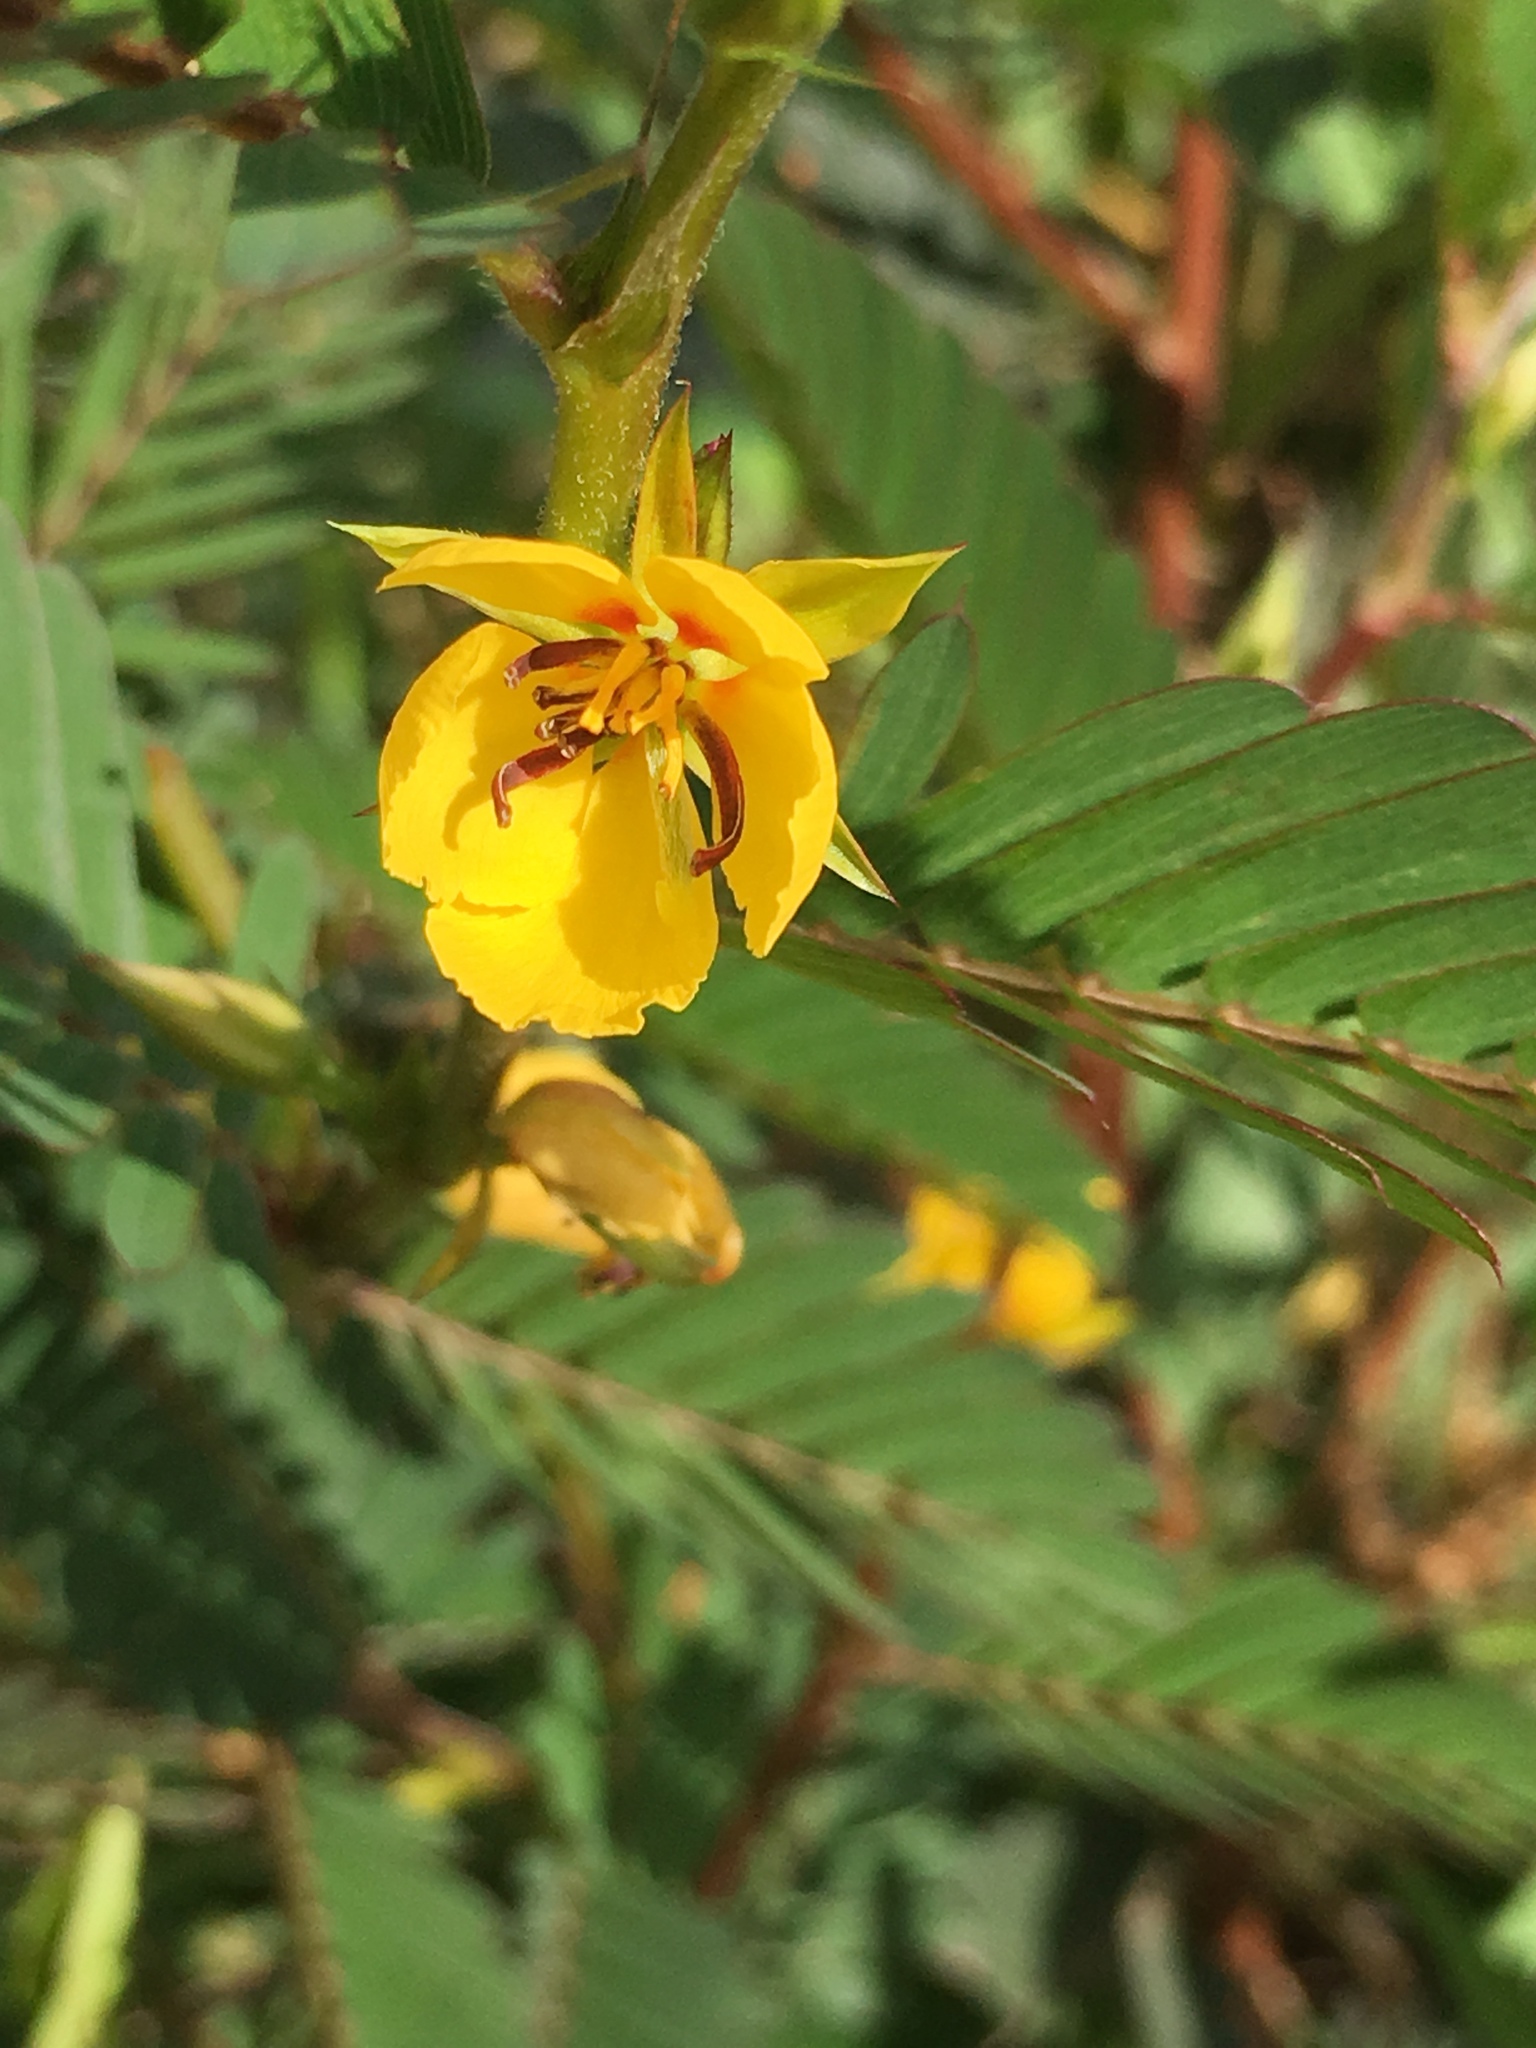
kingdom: Plantae
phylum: Tracheophyta
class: Magnoliopsida
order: Fabales
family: Fabaceae
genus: Chamaecrista
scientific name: Chamaecrista nictitans
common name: Sensitive cassia
